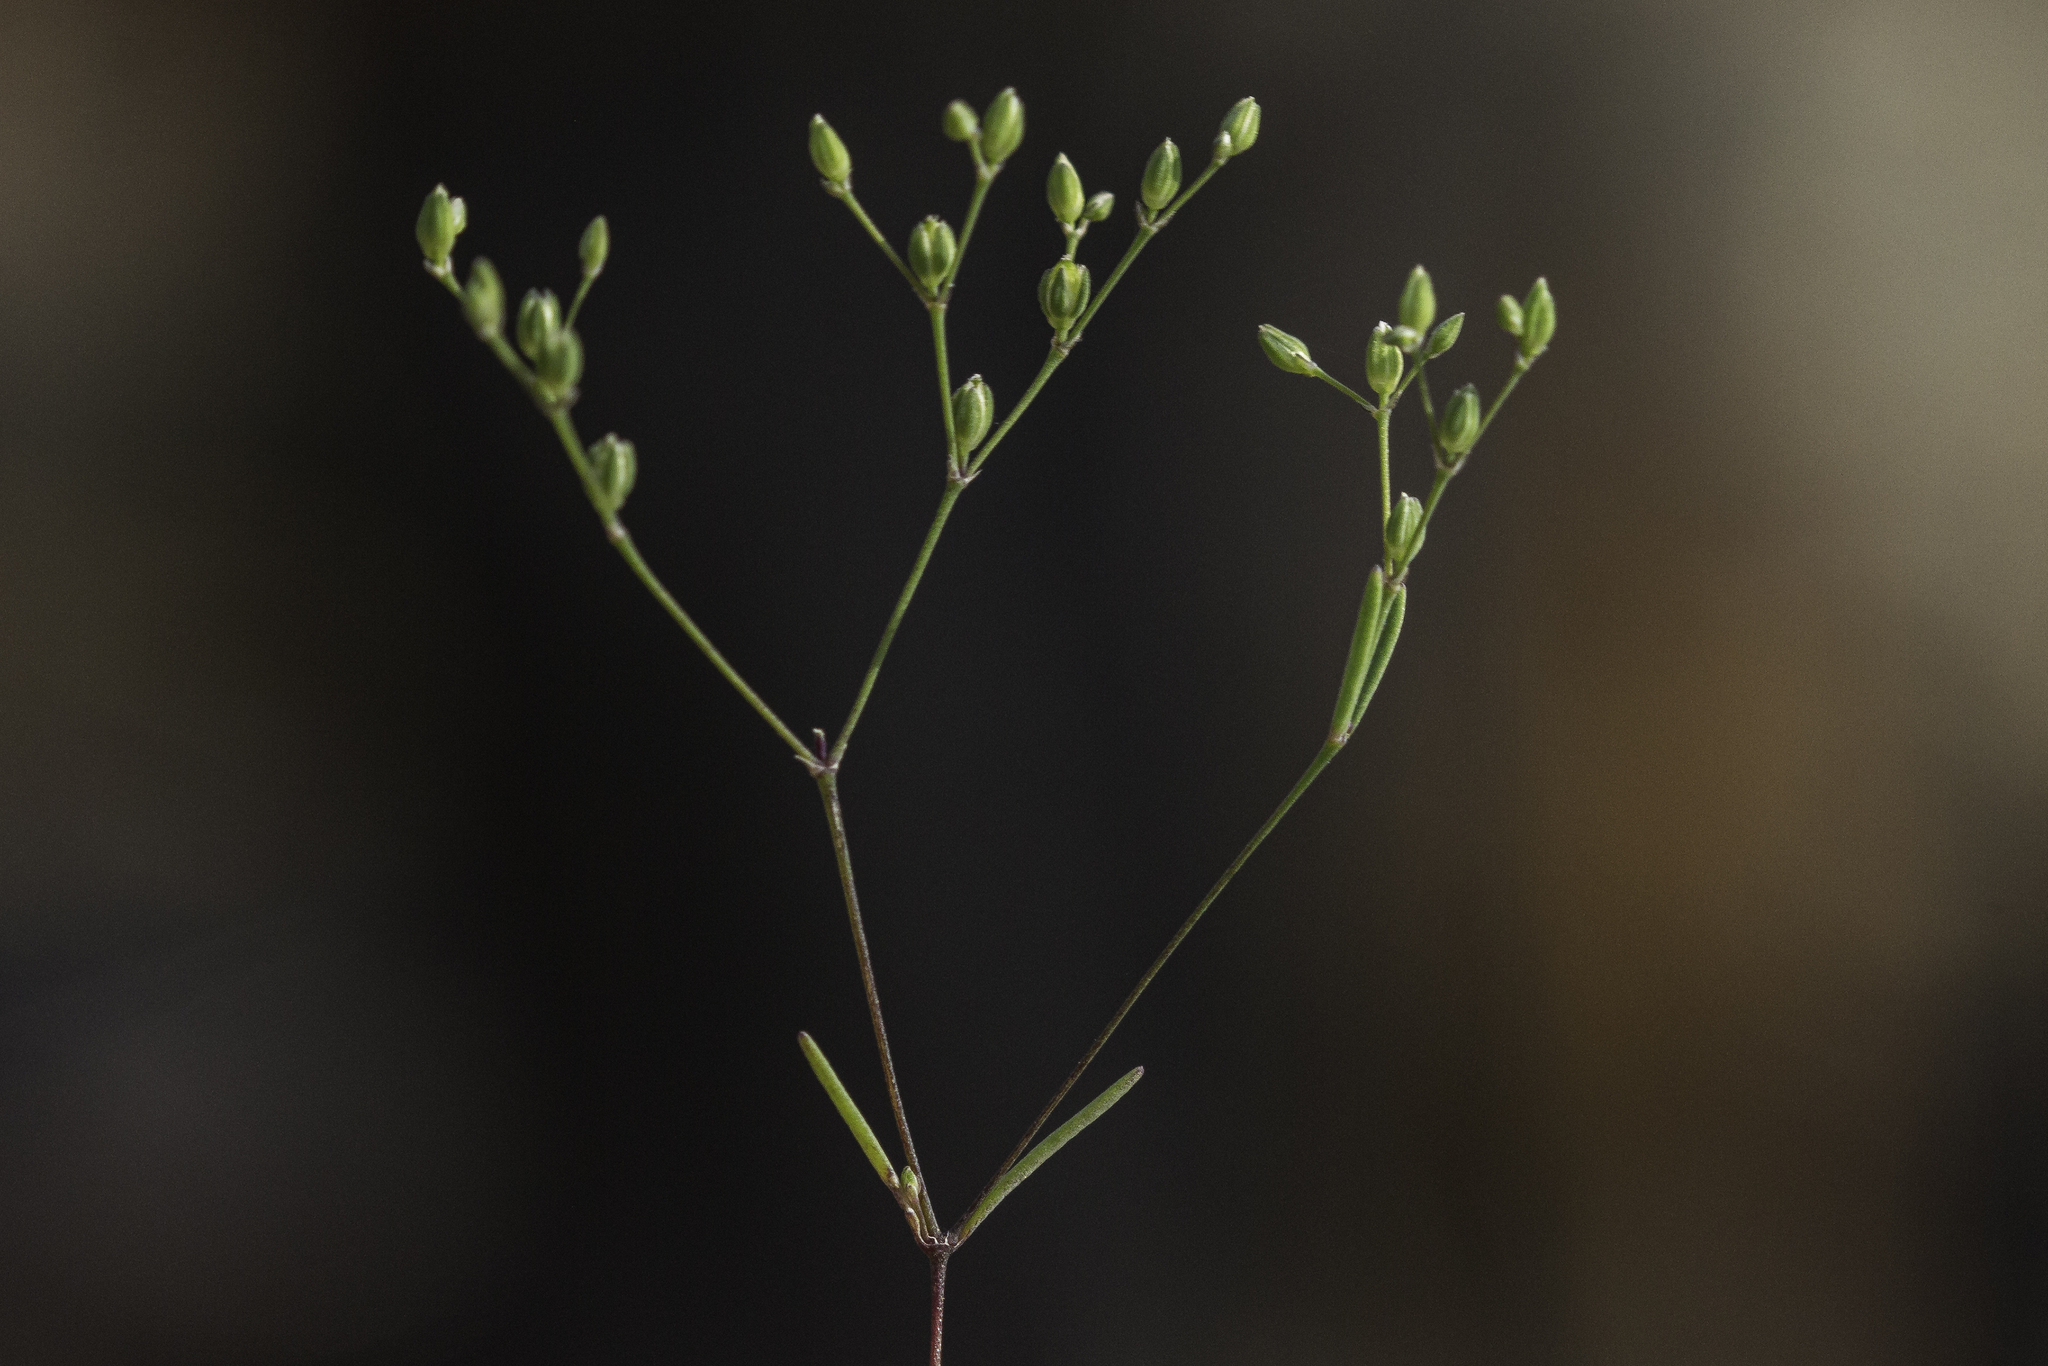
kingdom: Plantae
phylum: Tracheophyta
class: Magnoliopsida
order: Caryophyllales
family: Caryophyllaceae
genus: Drymaria
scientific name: Drymaria leptophylla
